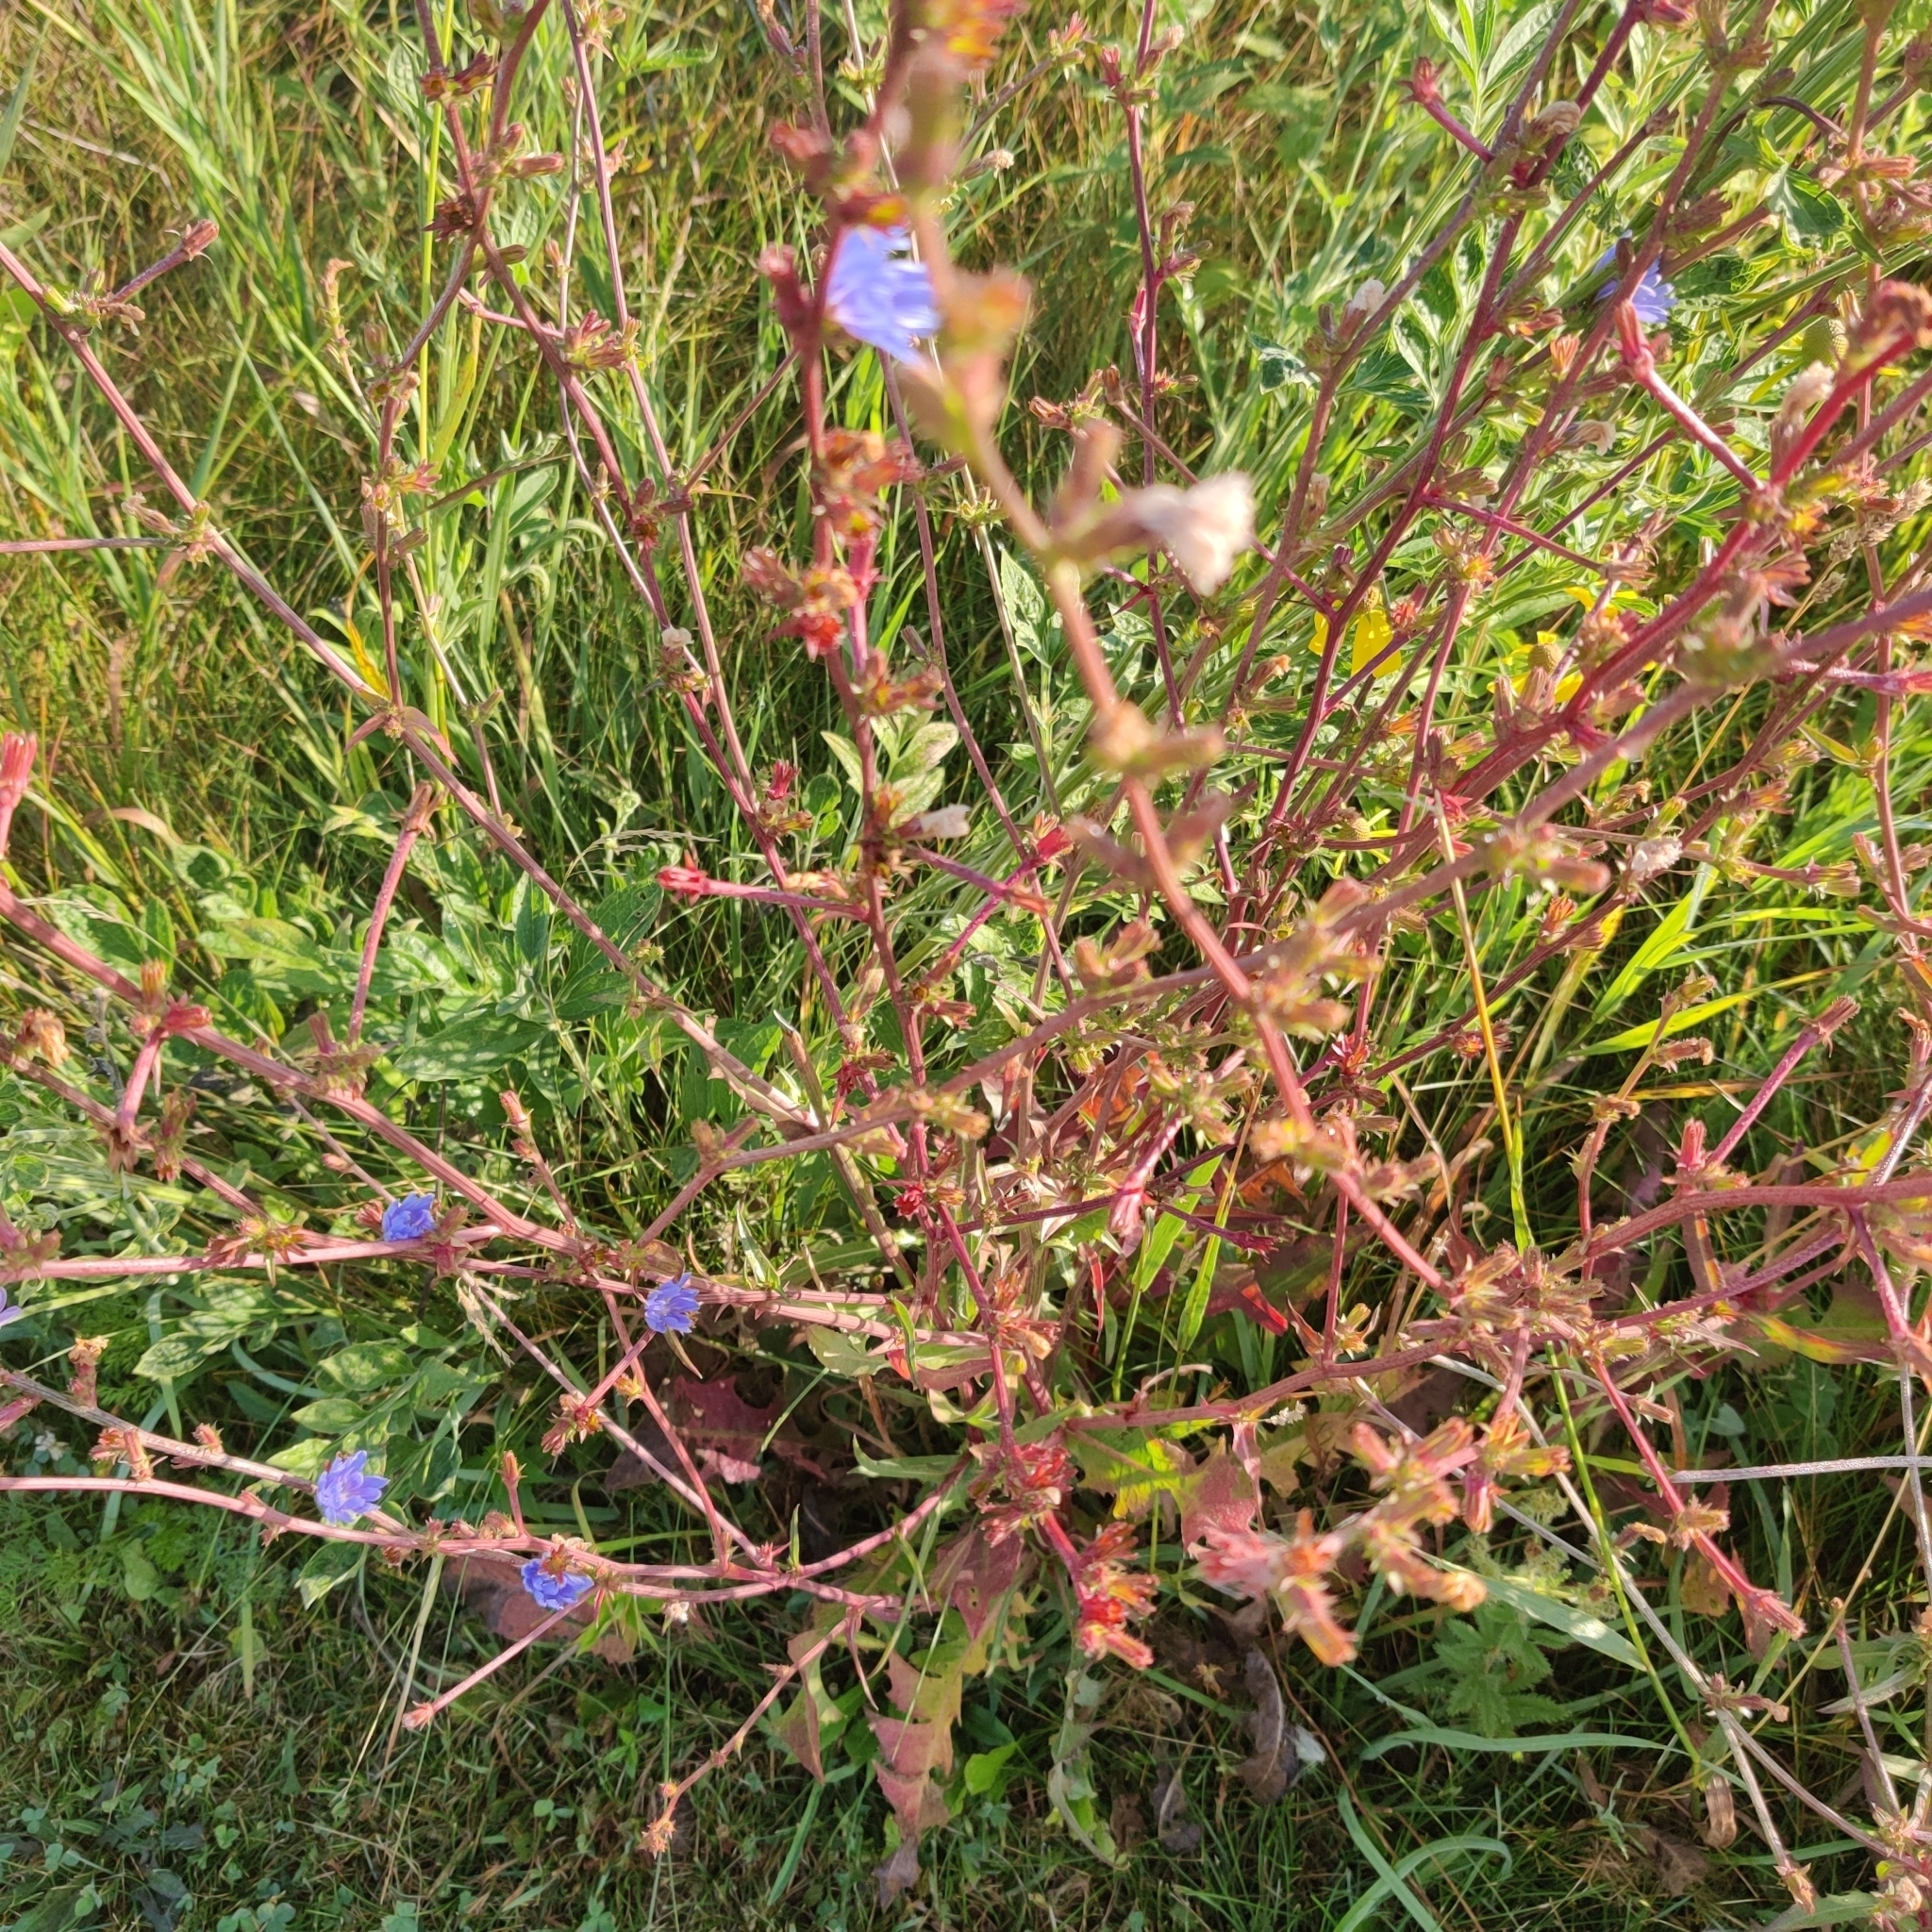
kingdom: Plantae
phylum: Tracheophyta
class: Magnoliopsida
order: Asterales
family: Asteraceae
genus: Cichorium
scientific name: Cichorium intybus
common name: Chicory
